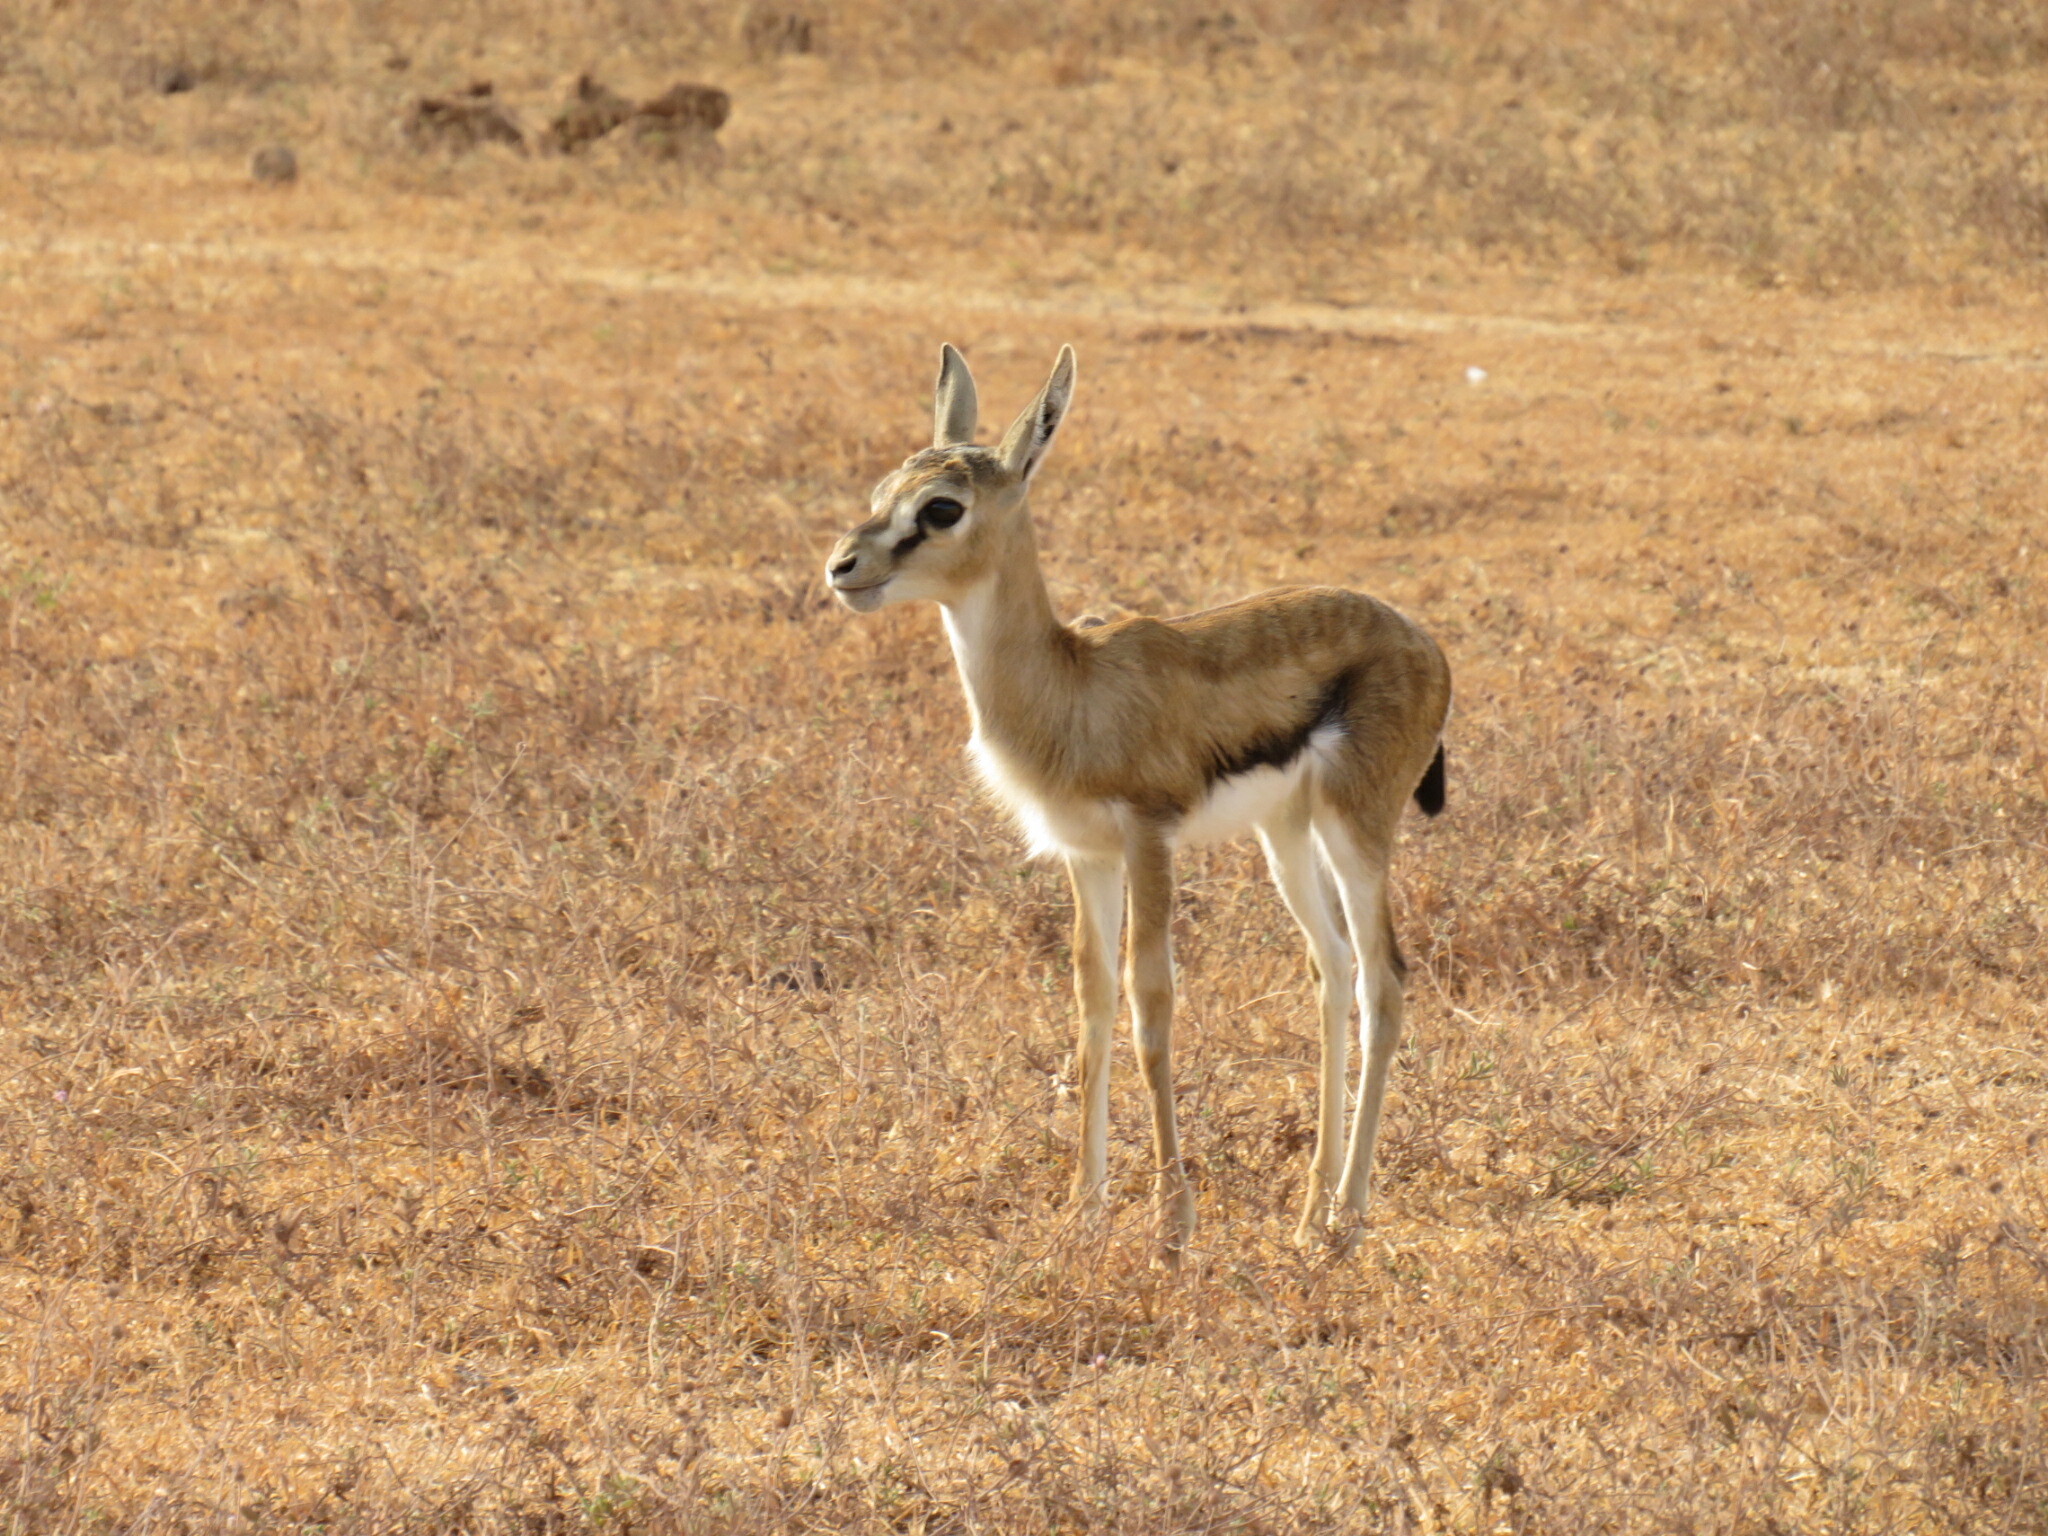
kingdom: Animalia
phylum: Chordata
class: Mammalia
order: Artiodactyla
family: Bovidae
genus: Eudorcas
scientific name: Eudorcas thomsonii
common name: Thomson's gazelle
